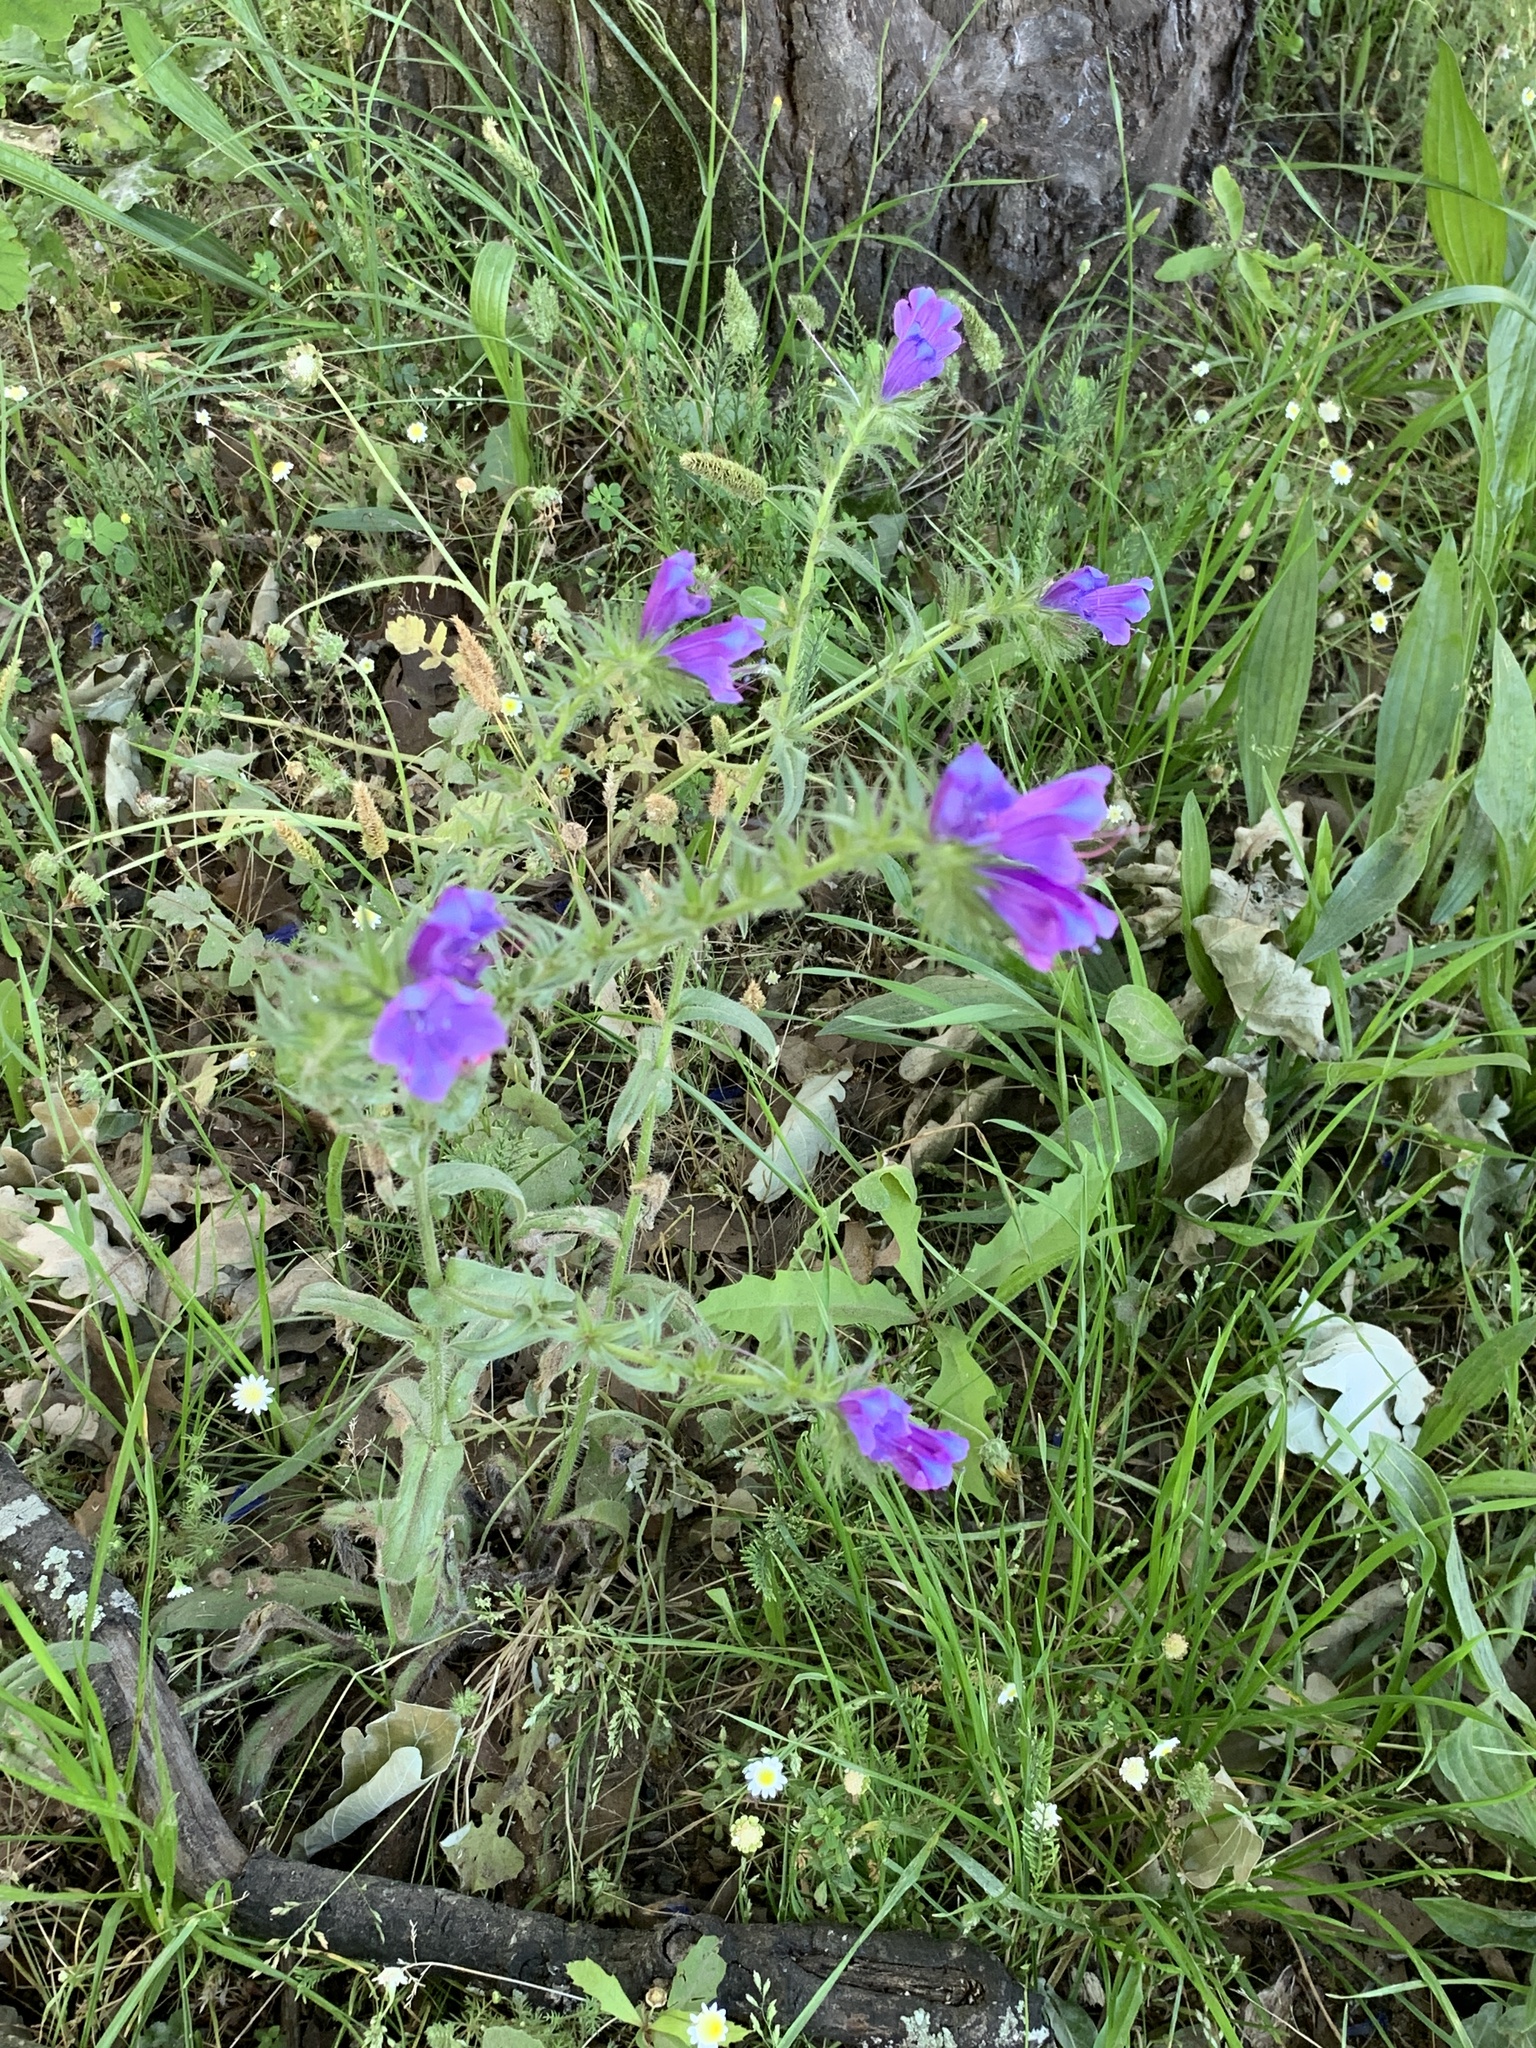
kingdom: Plantae
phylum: Tracheophyta
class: Magnoliopsida
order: Boraginales
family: Boraginaceae
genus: Echium
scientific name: Echium plantagineum
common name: Purple viper's-bugloss
